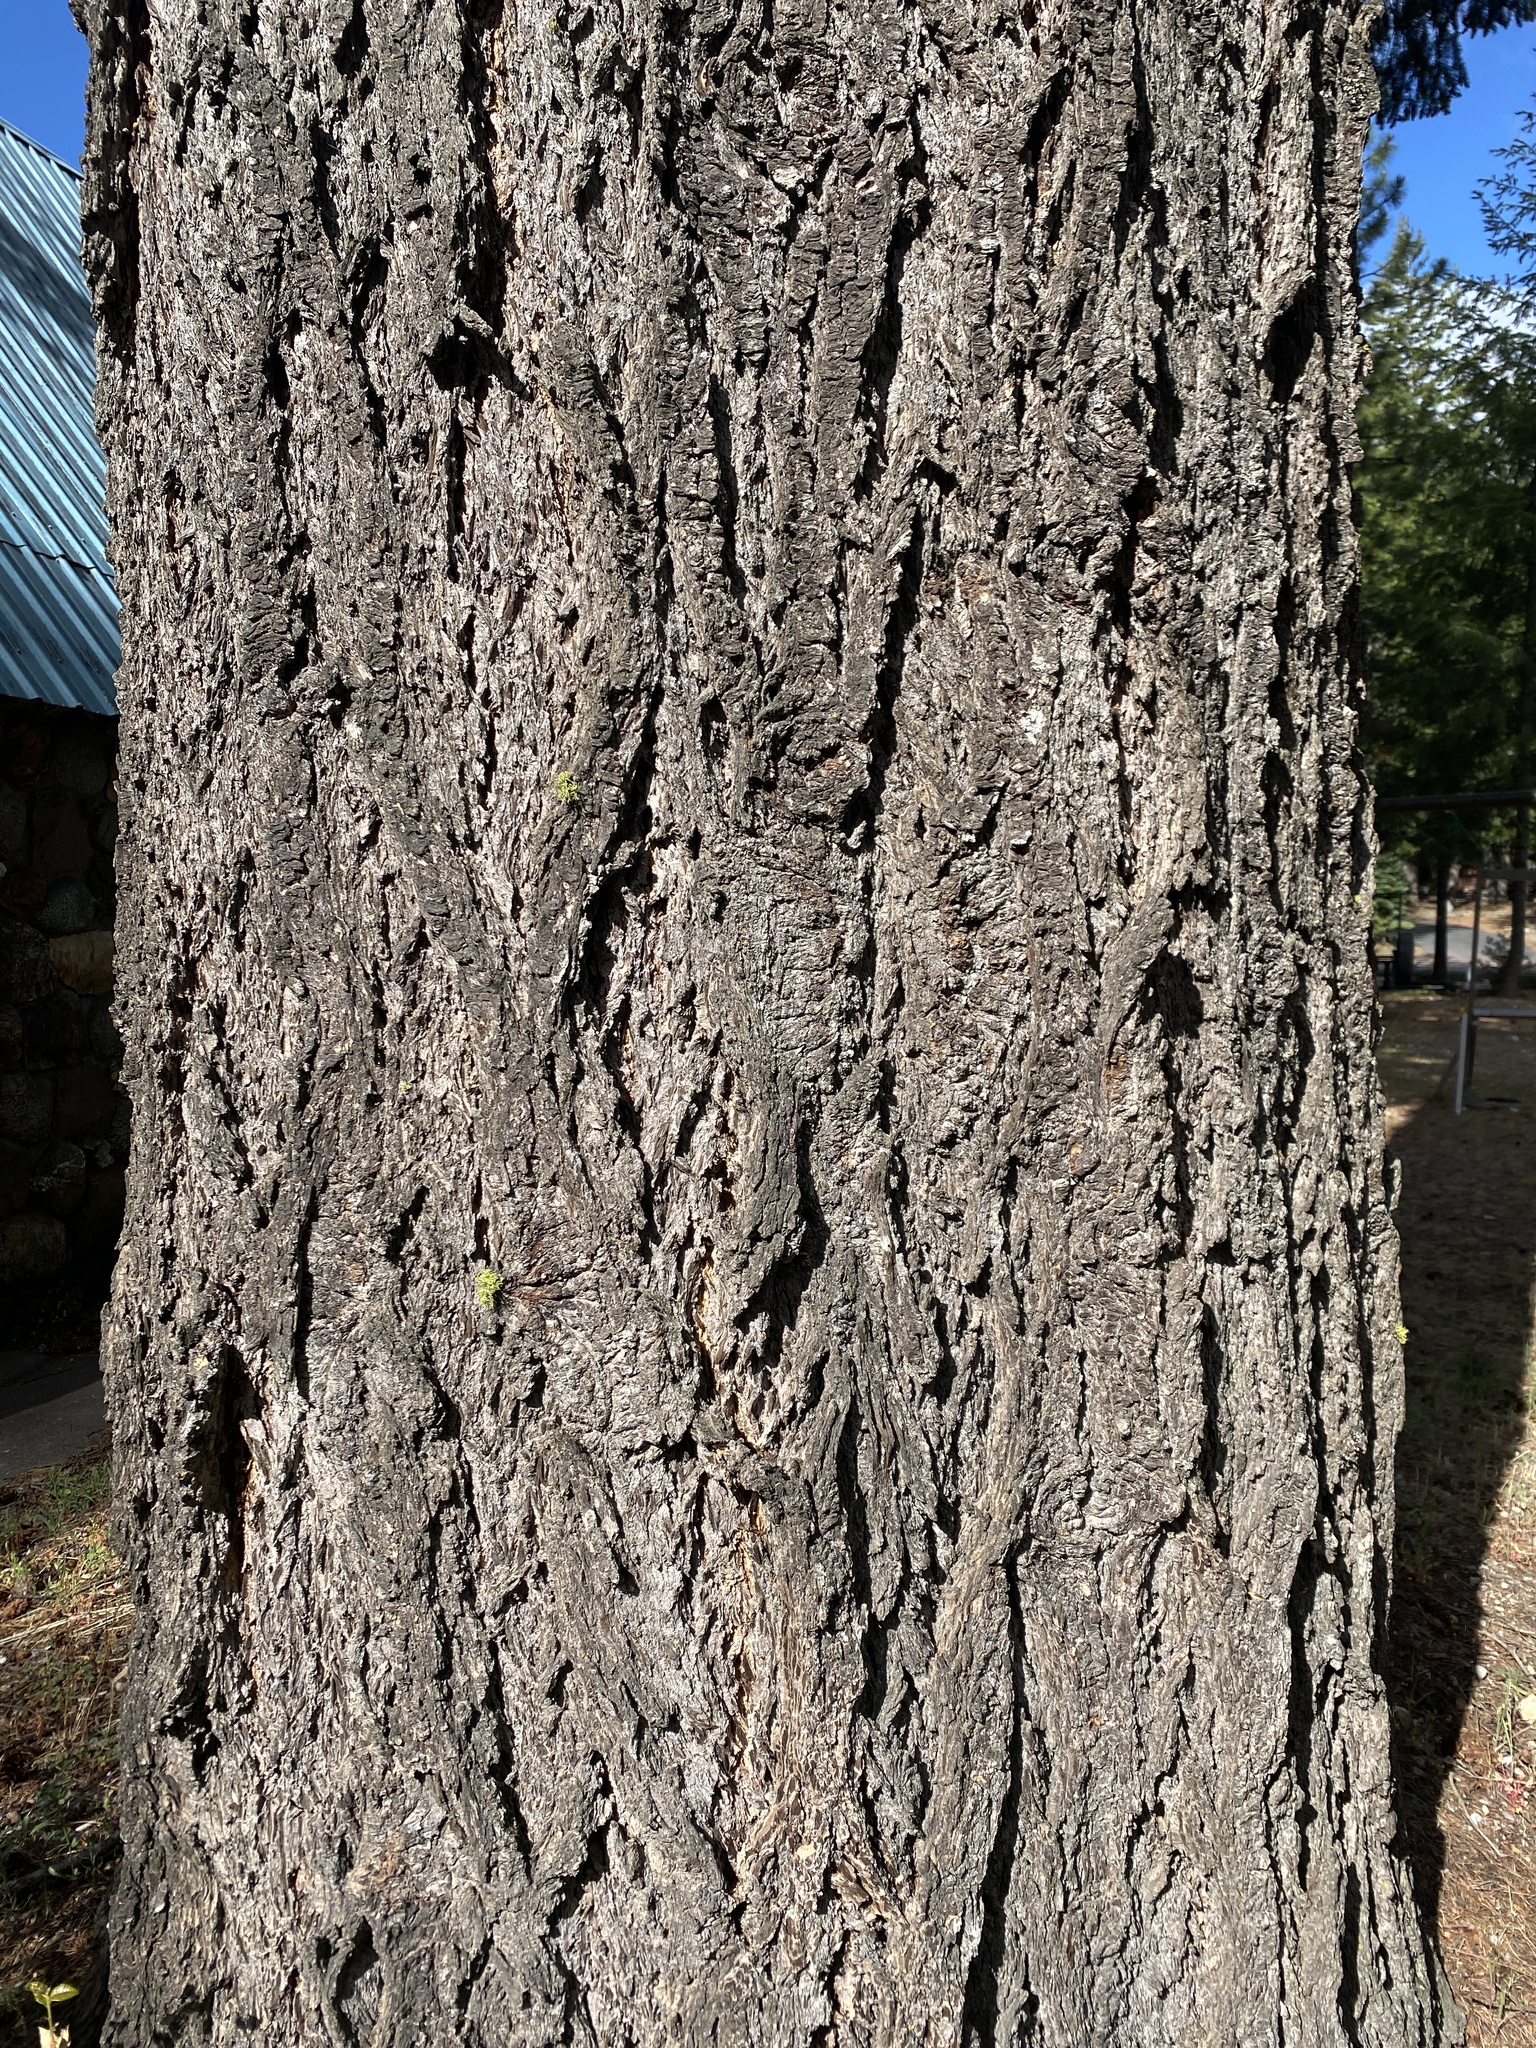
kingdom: Plantae
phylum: Tracheophyta
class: Pinopsida
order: Pinales
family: Pinaceae
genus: Pseudotsuga
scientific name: Pseudotsuga menziesii
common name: Douglas fir
